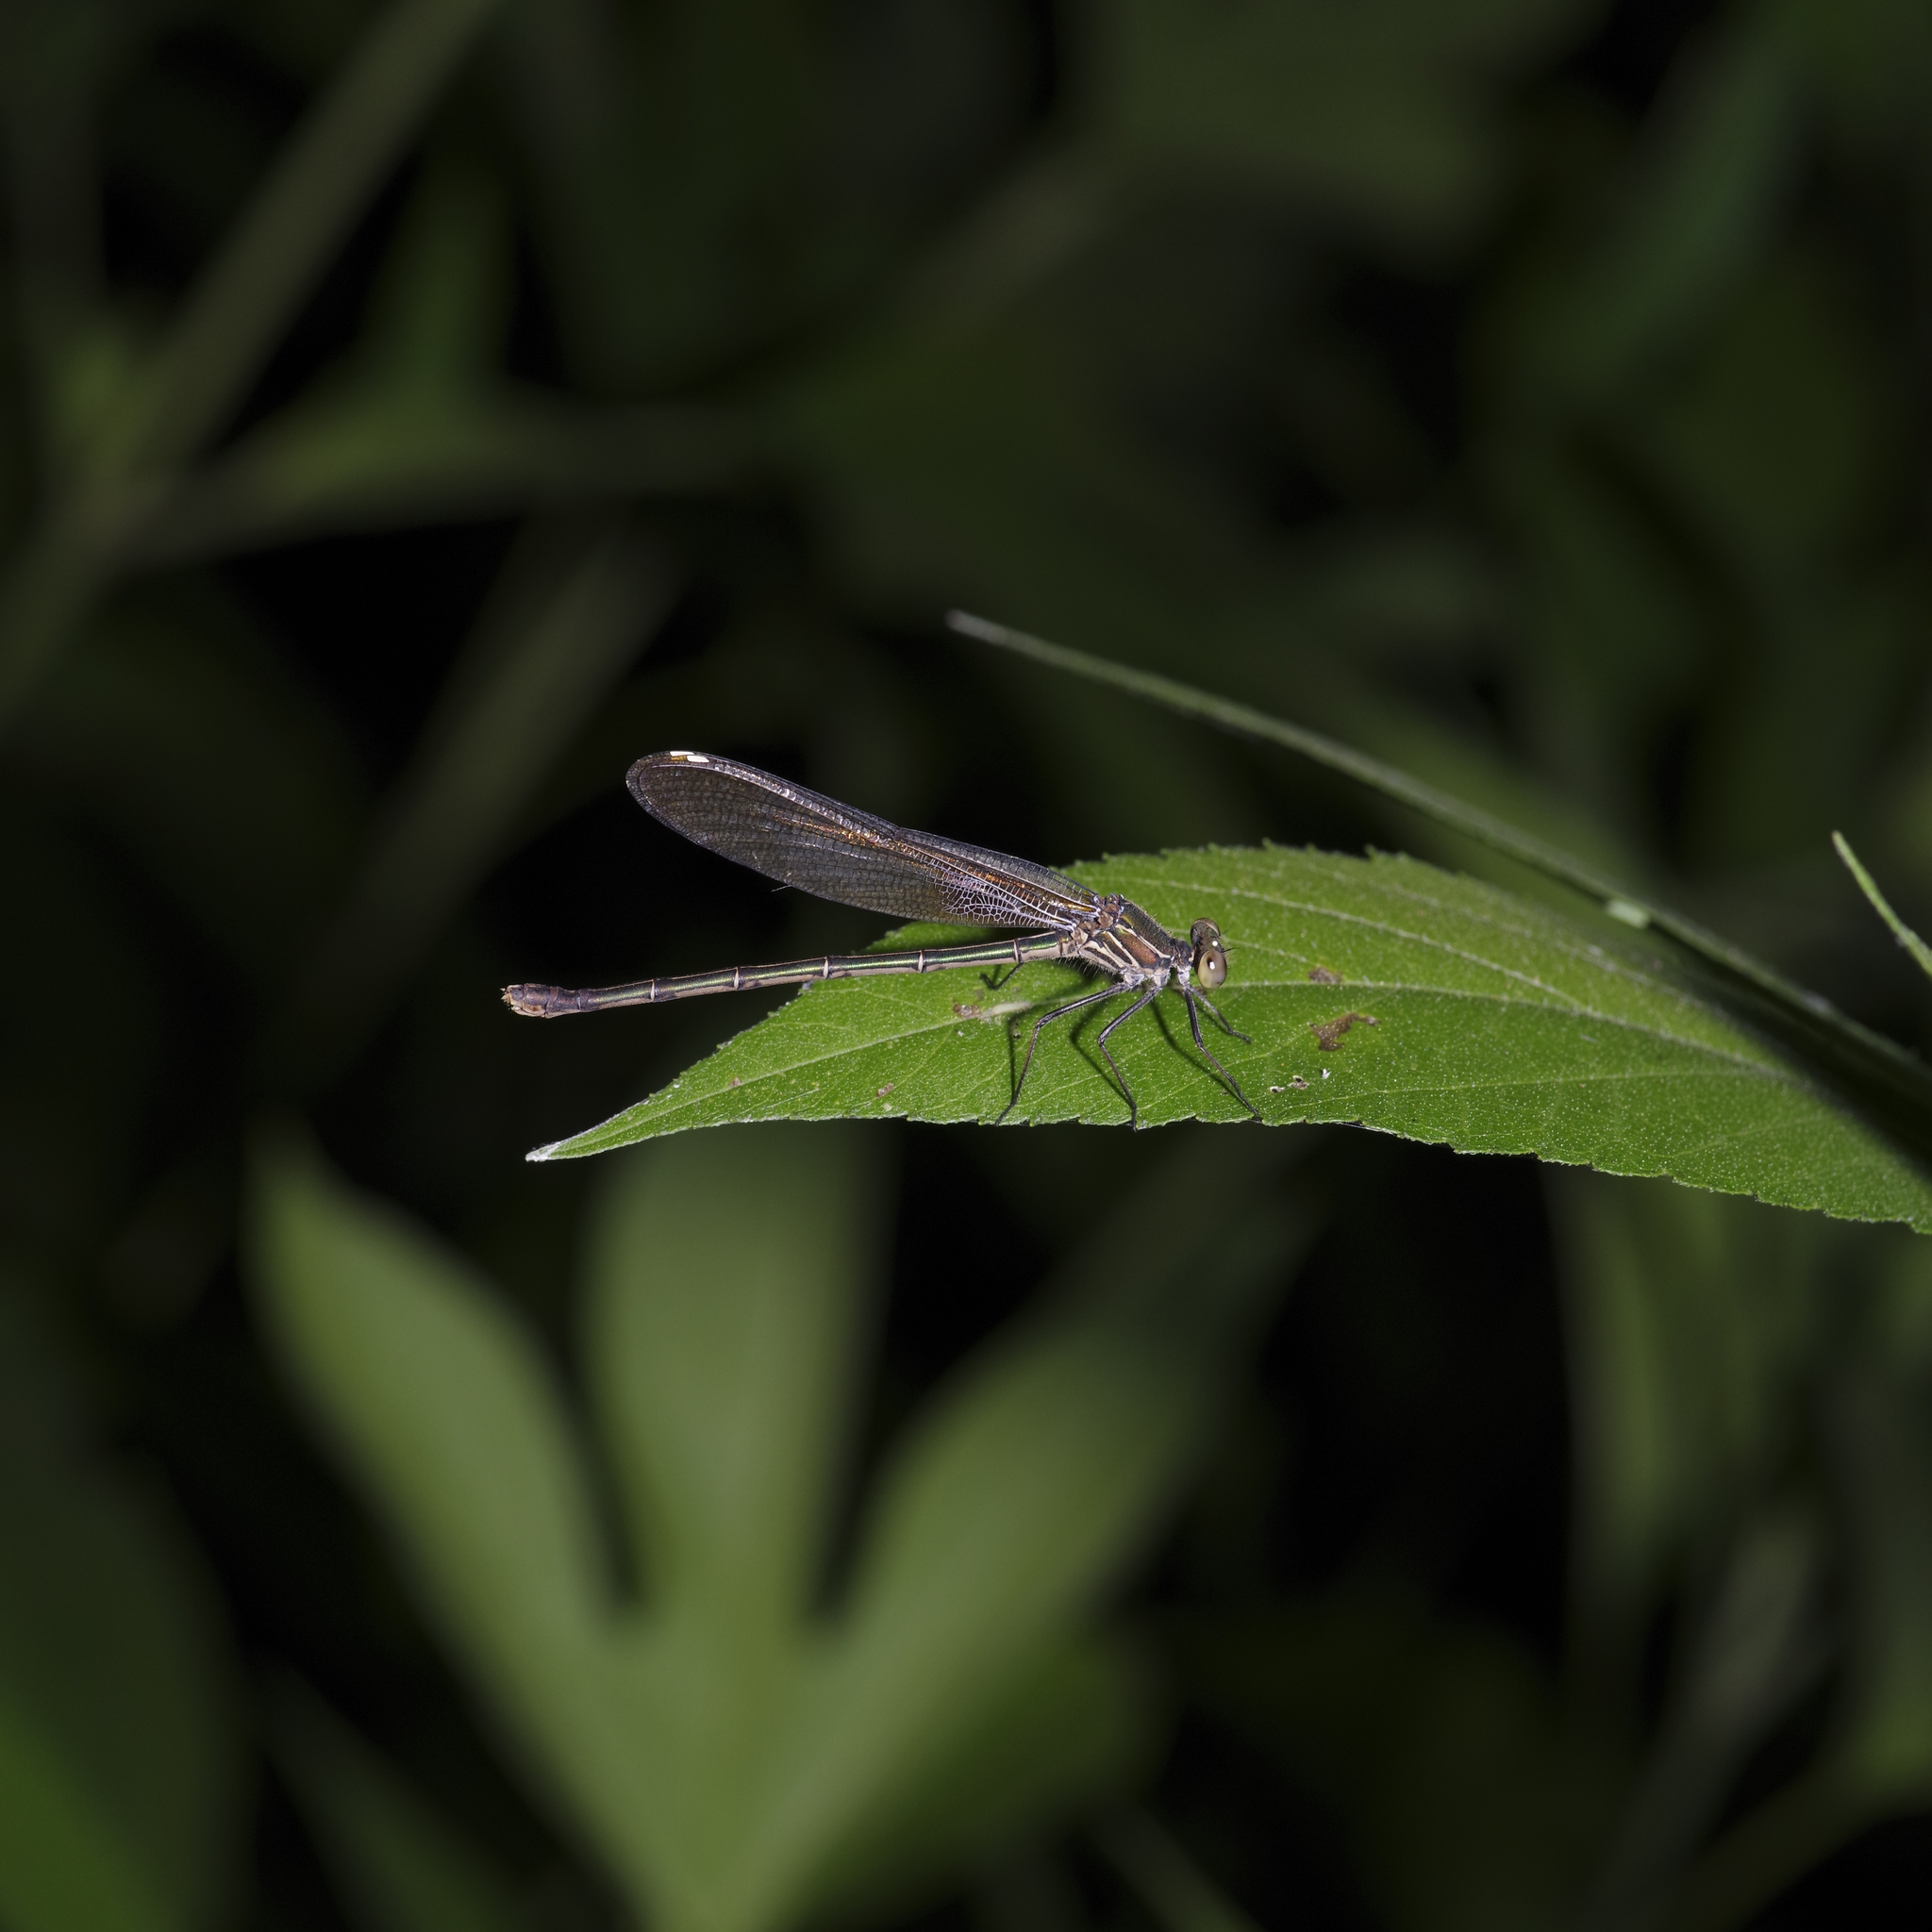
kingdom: Animalia
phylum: Arthropoda
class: Insecta
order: Odonata
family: Calopterygidae
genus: Hetaerina
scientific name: Hetaerina americana
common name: American rubyspot
